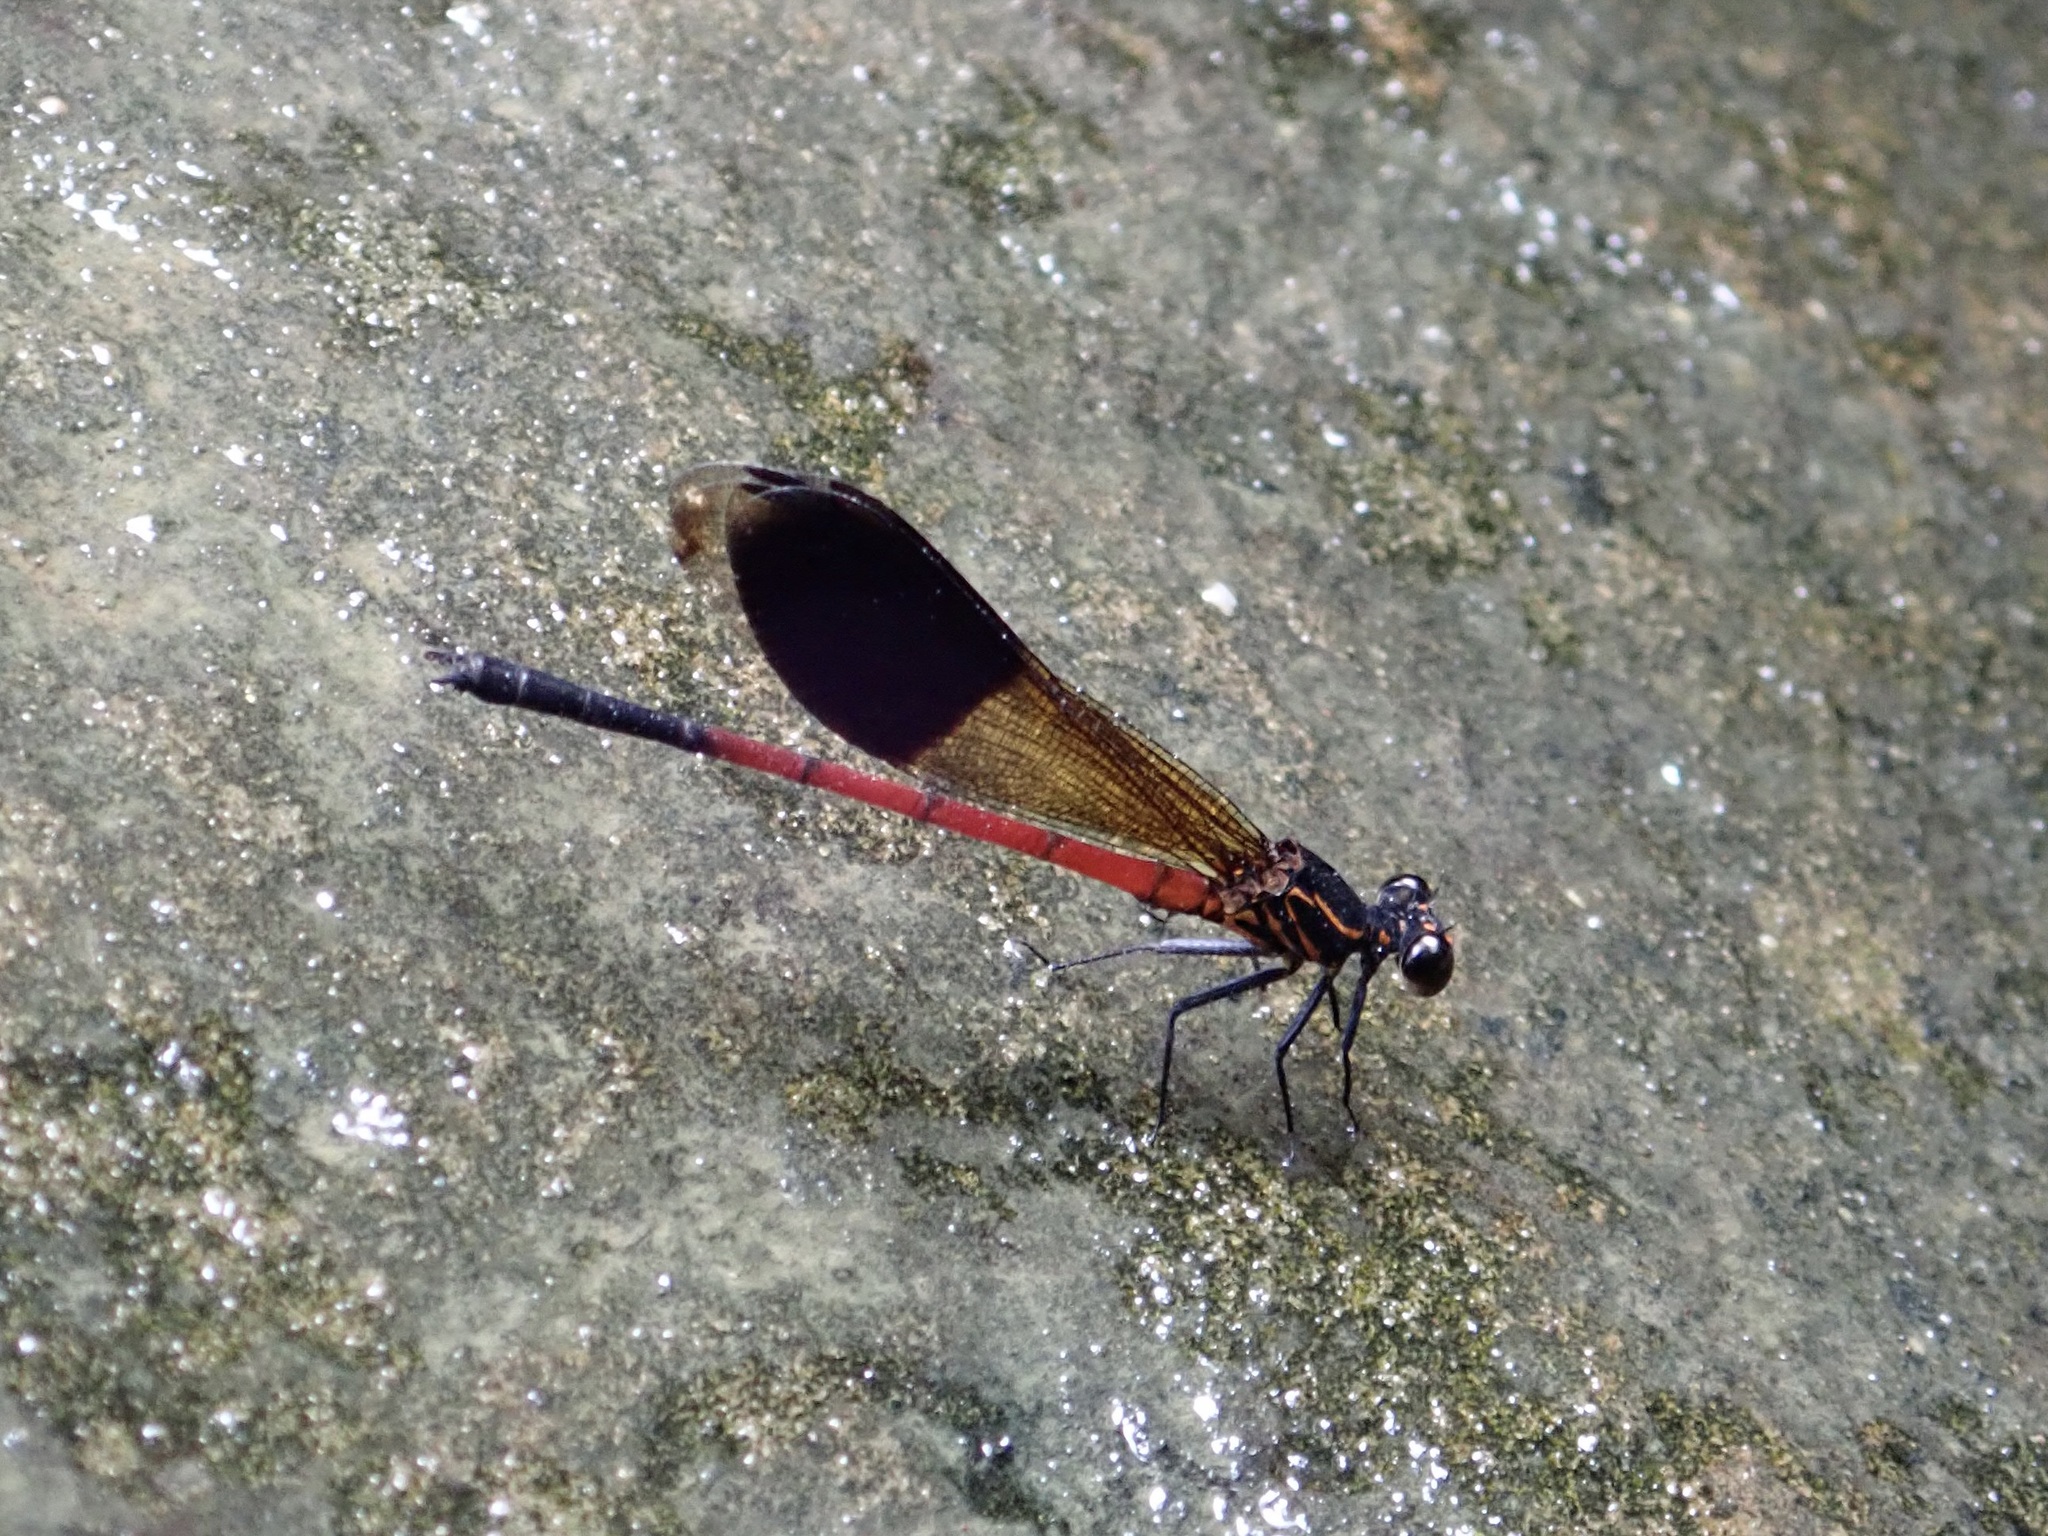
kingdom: Animalia
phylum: Arthropoda
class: Insecta
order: Odonata
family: Euphaeidae
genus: Euphaea
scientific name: Euphaea yayeyamana
